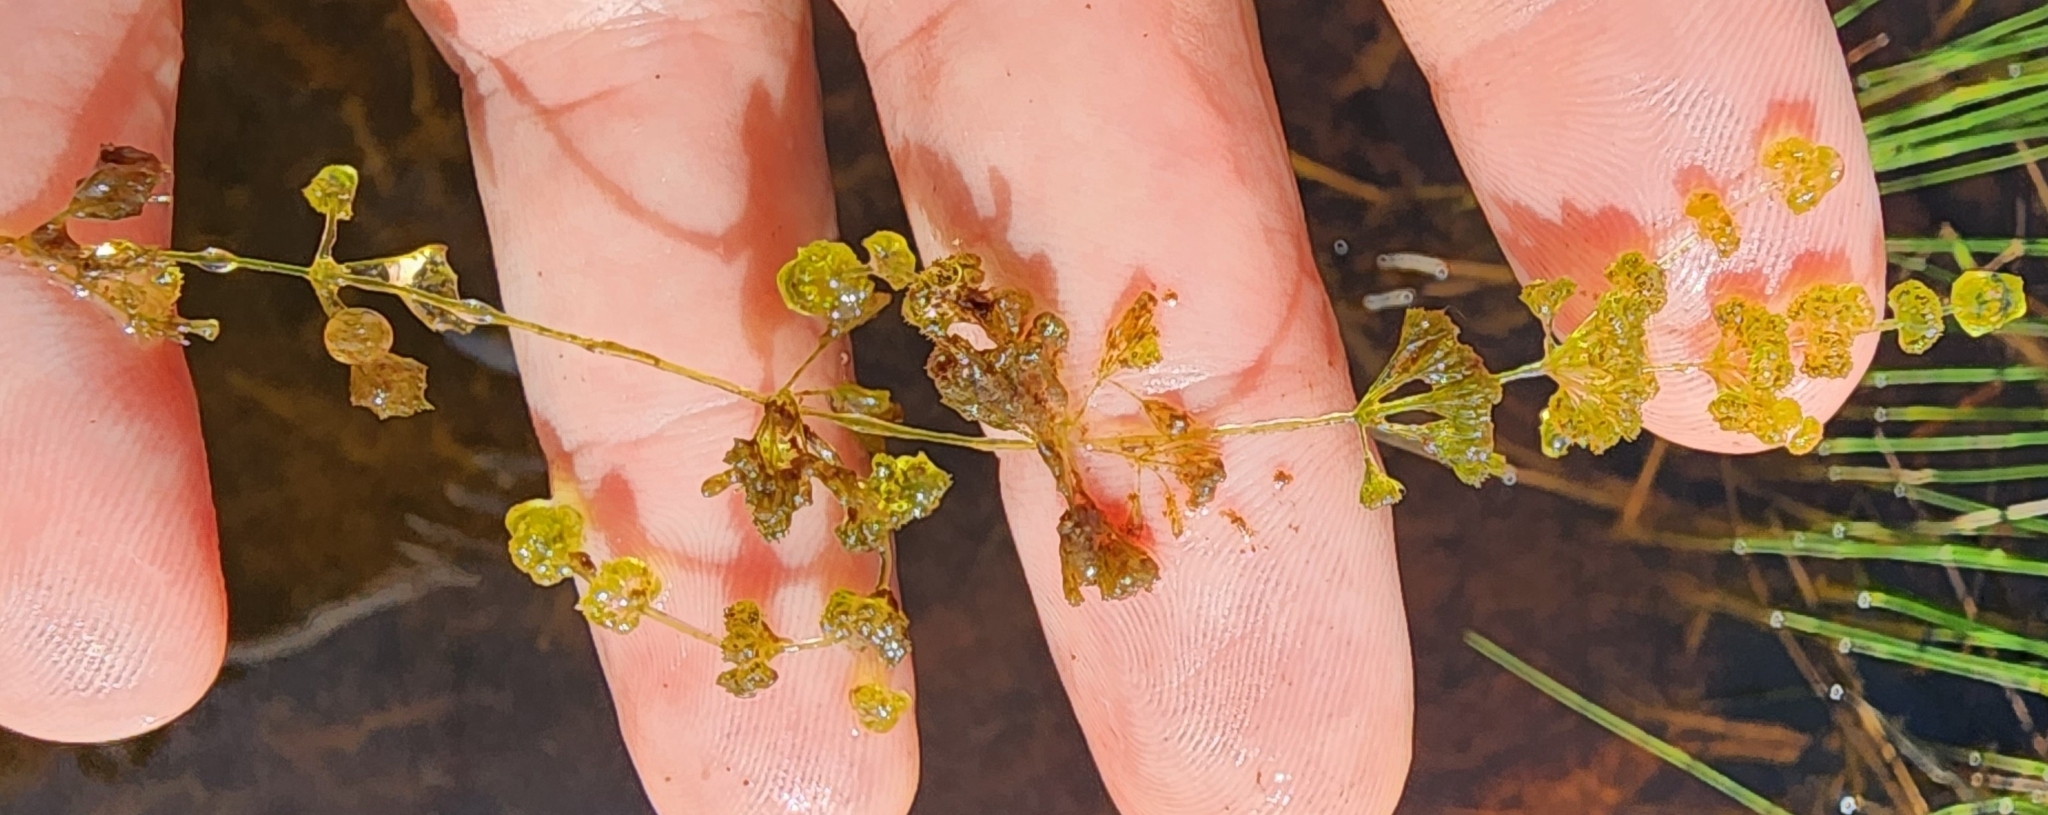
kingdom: Plantae
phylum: Charophyta
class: Charophyceae
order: Charales
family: Characeae
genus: Nitella
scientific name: Nitella tenuissima
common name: Compact stonewort
